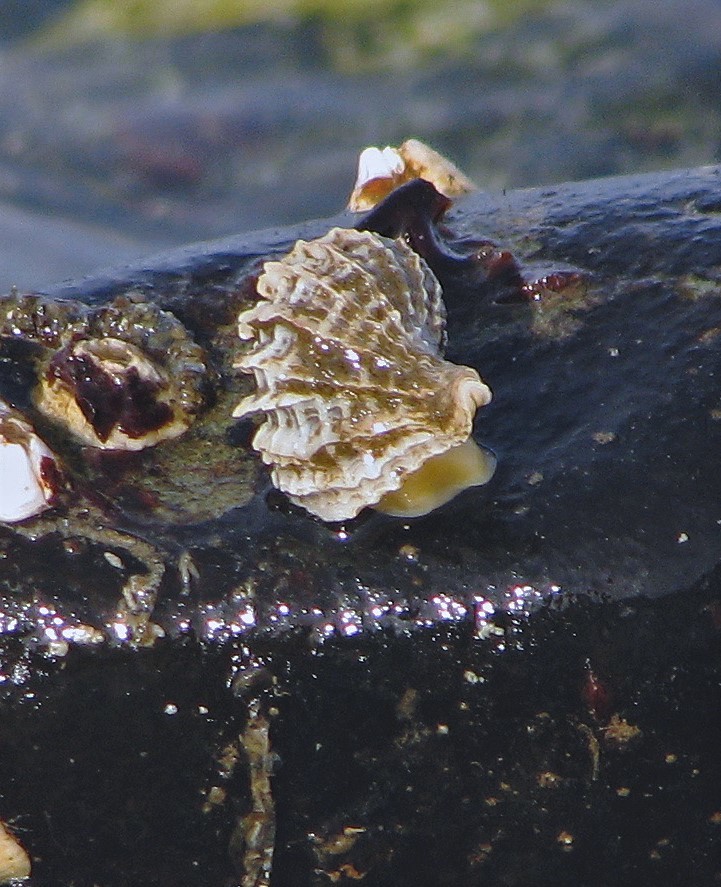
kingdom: Animalia
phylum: Mollusca
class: Gastropoda
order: Neogastropoda
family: Muricidae
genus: Trophon
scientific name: Trophon geversianus
